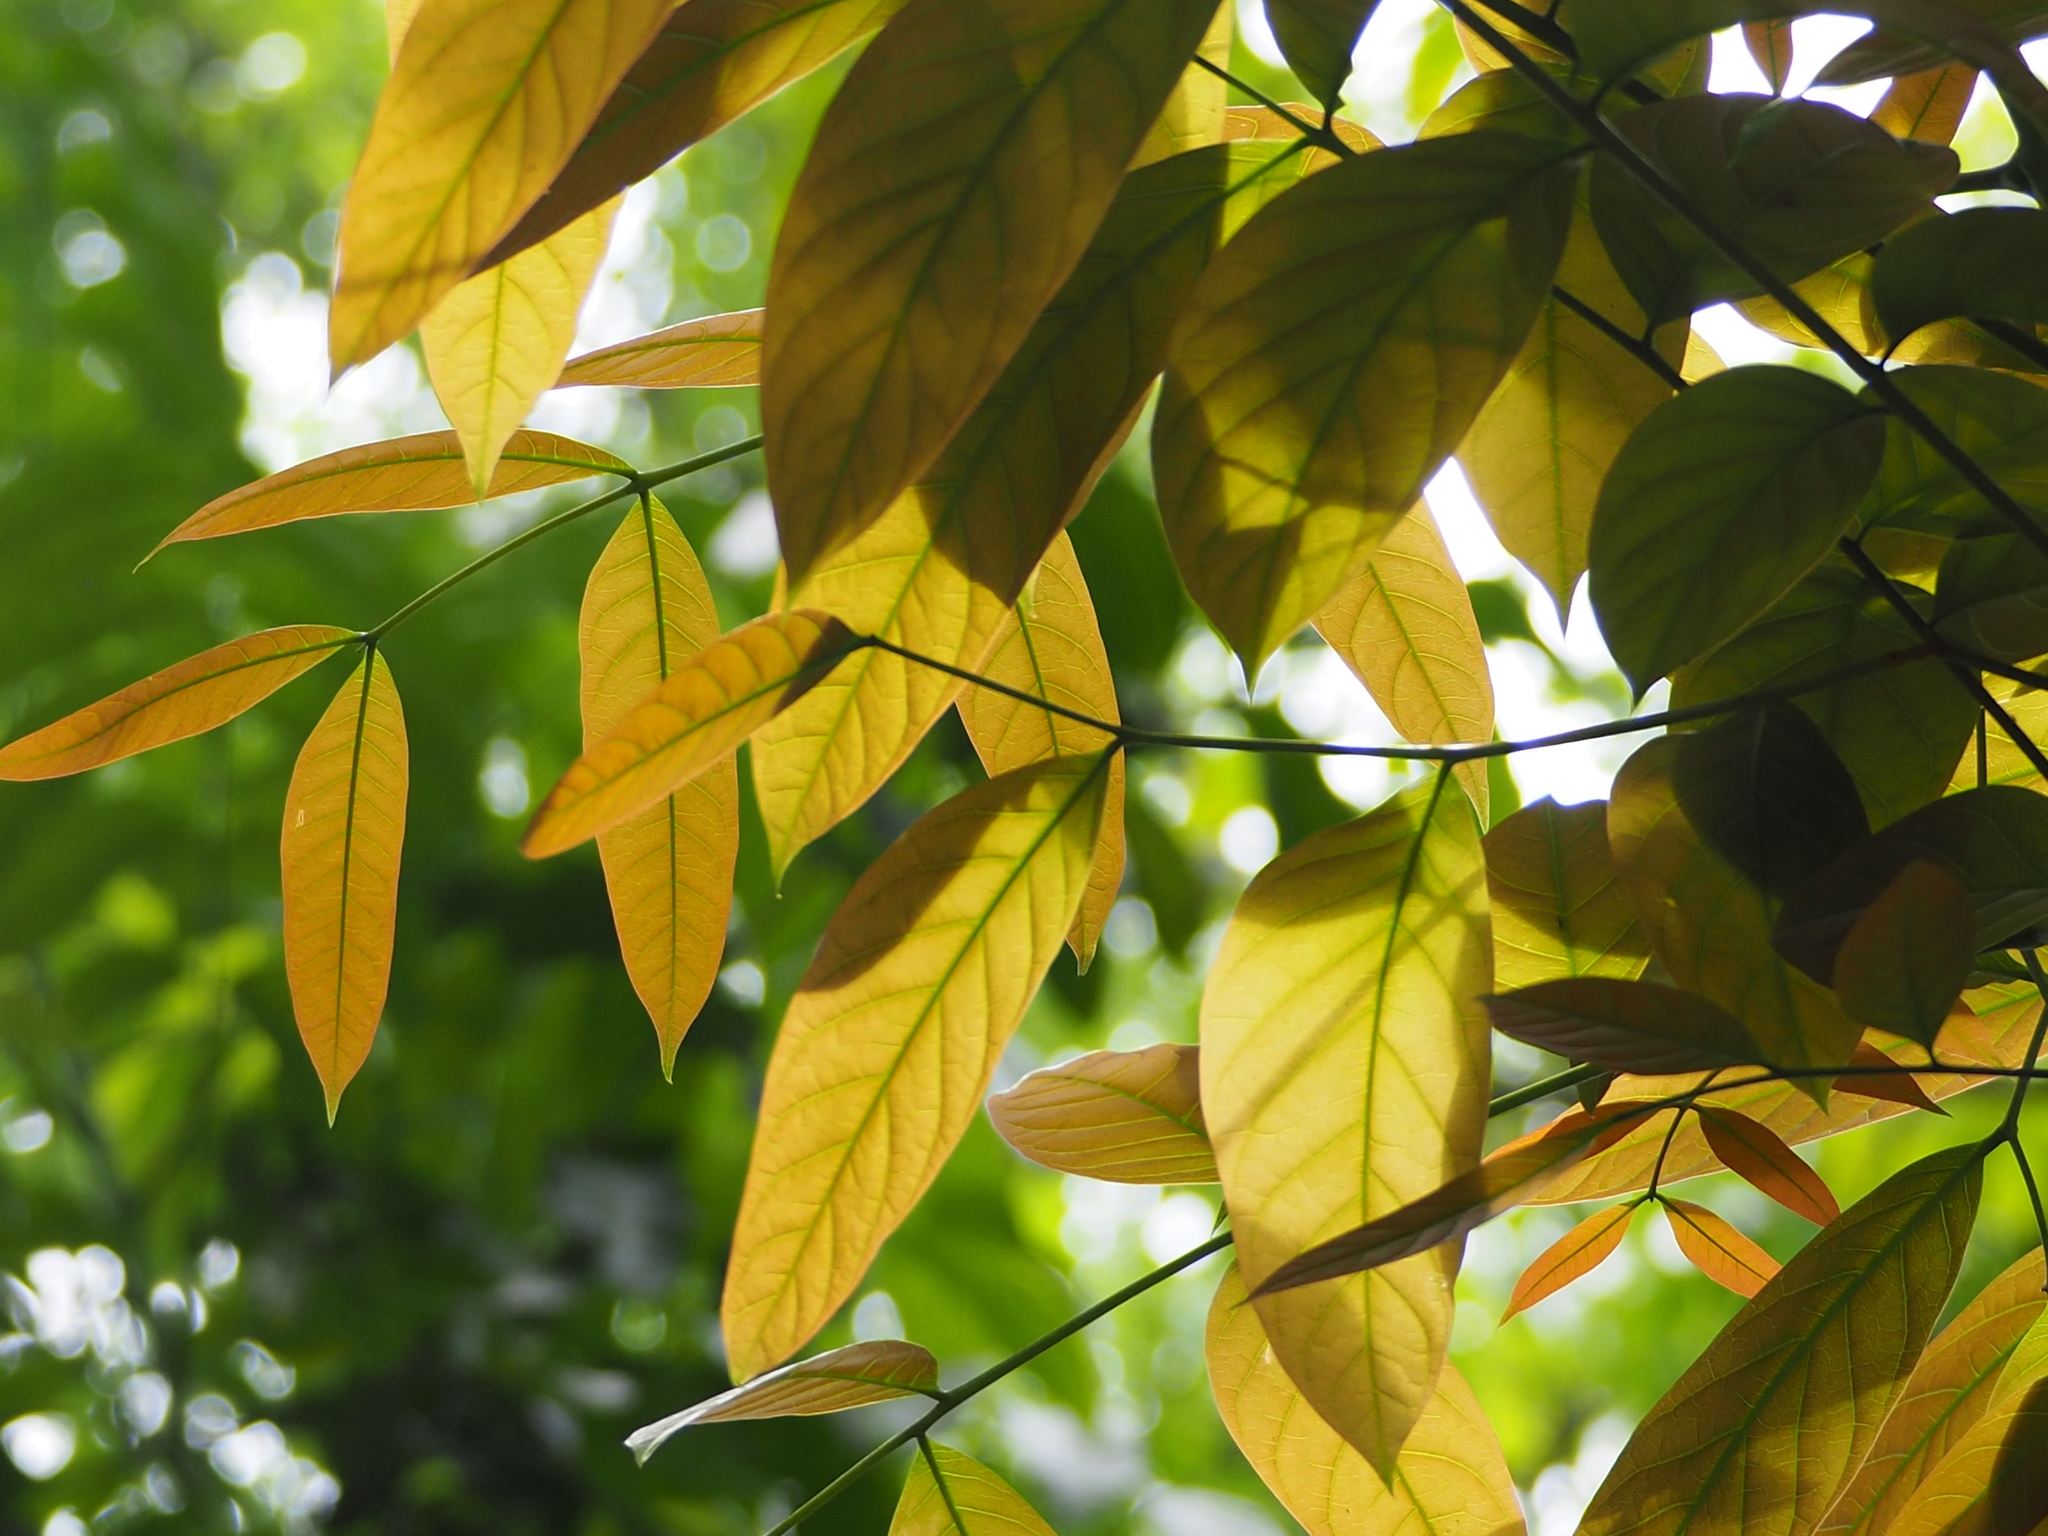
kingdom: Plantae
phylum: Tracheophyta
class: Magnoliopsida
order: Sapindales
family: Meliaceae
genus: Swietenia
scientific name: Swietenia macrophylla
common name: Honduras mahogany
